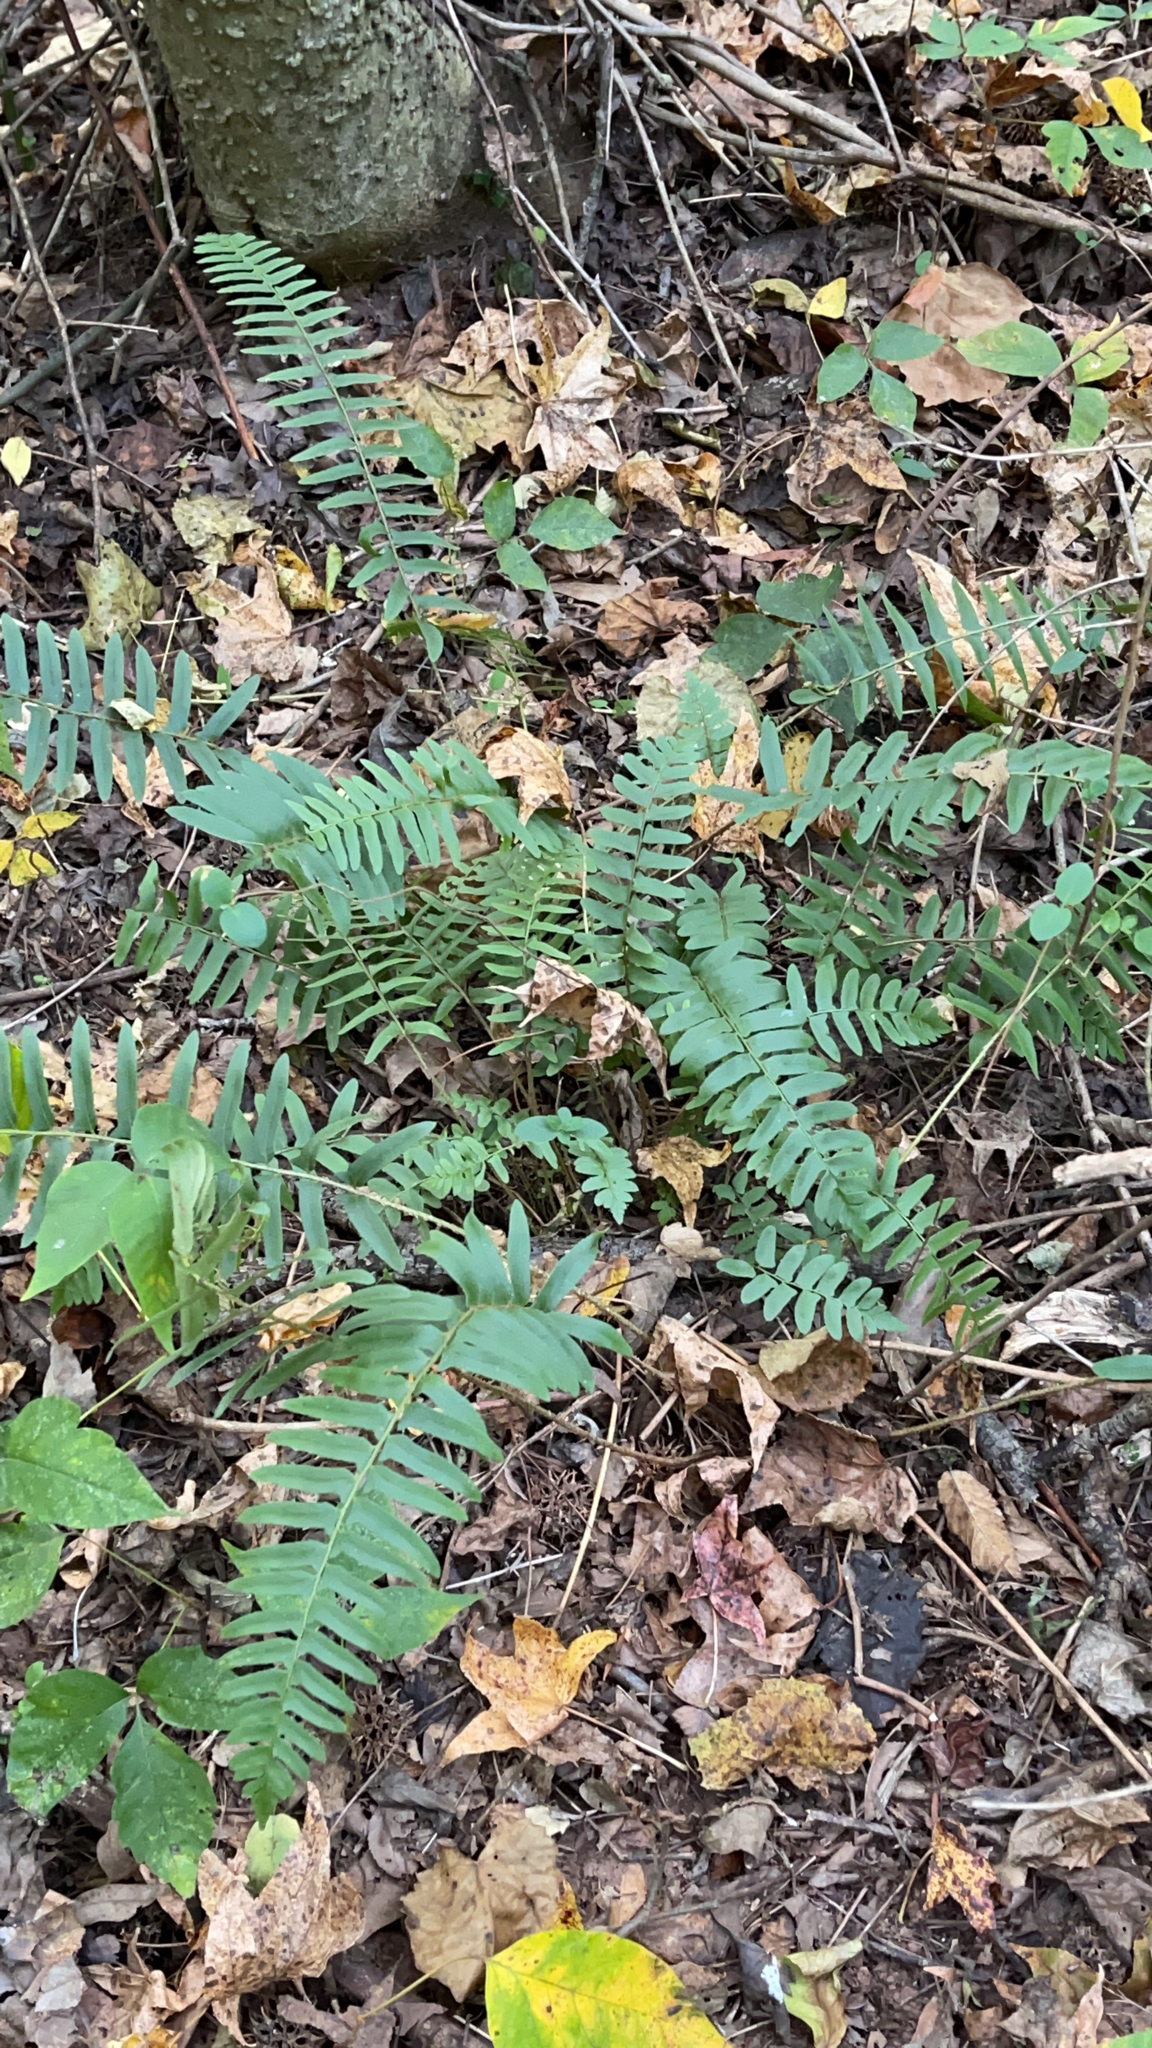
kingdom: Plantae
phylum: Tracheophyta
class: Polypodiopsida
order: Polypodiales
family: Dryopteridaceae
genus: Polystichum
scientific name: Polystichum acrostichoides
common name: Christmas fern
